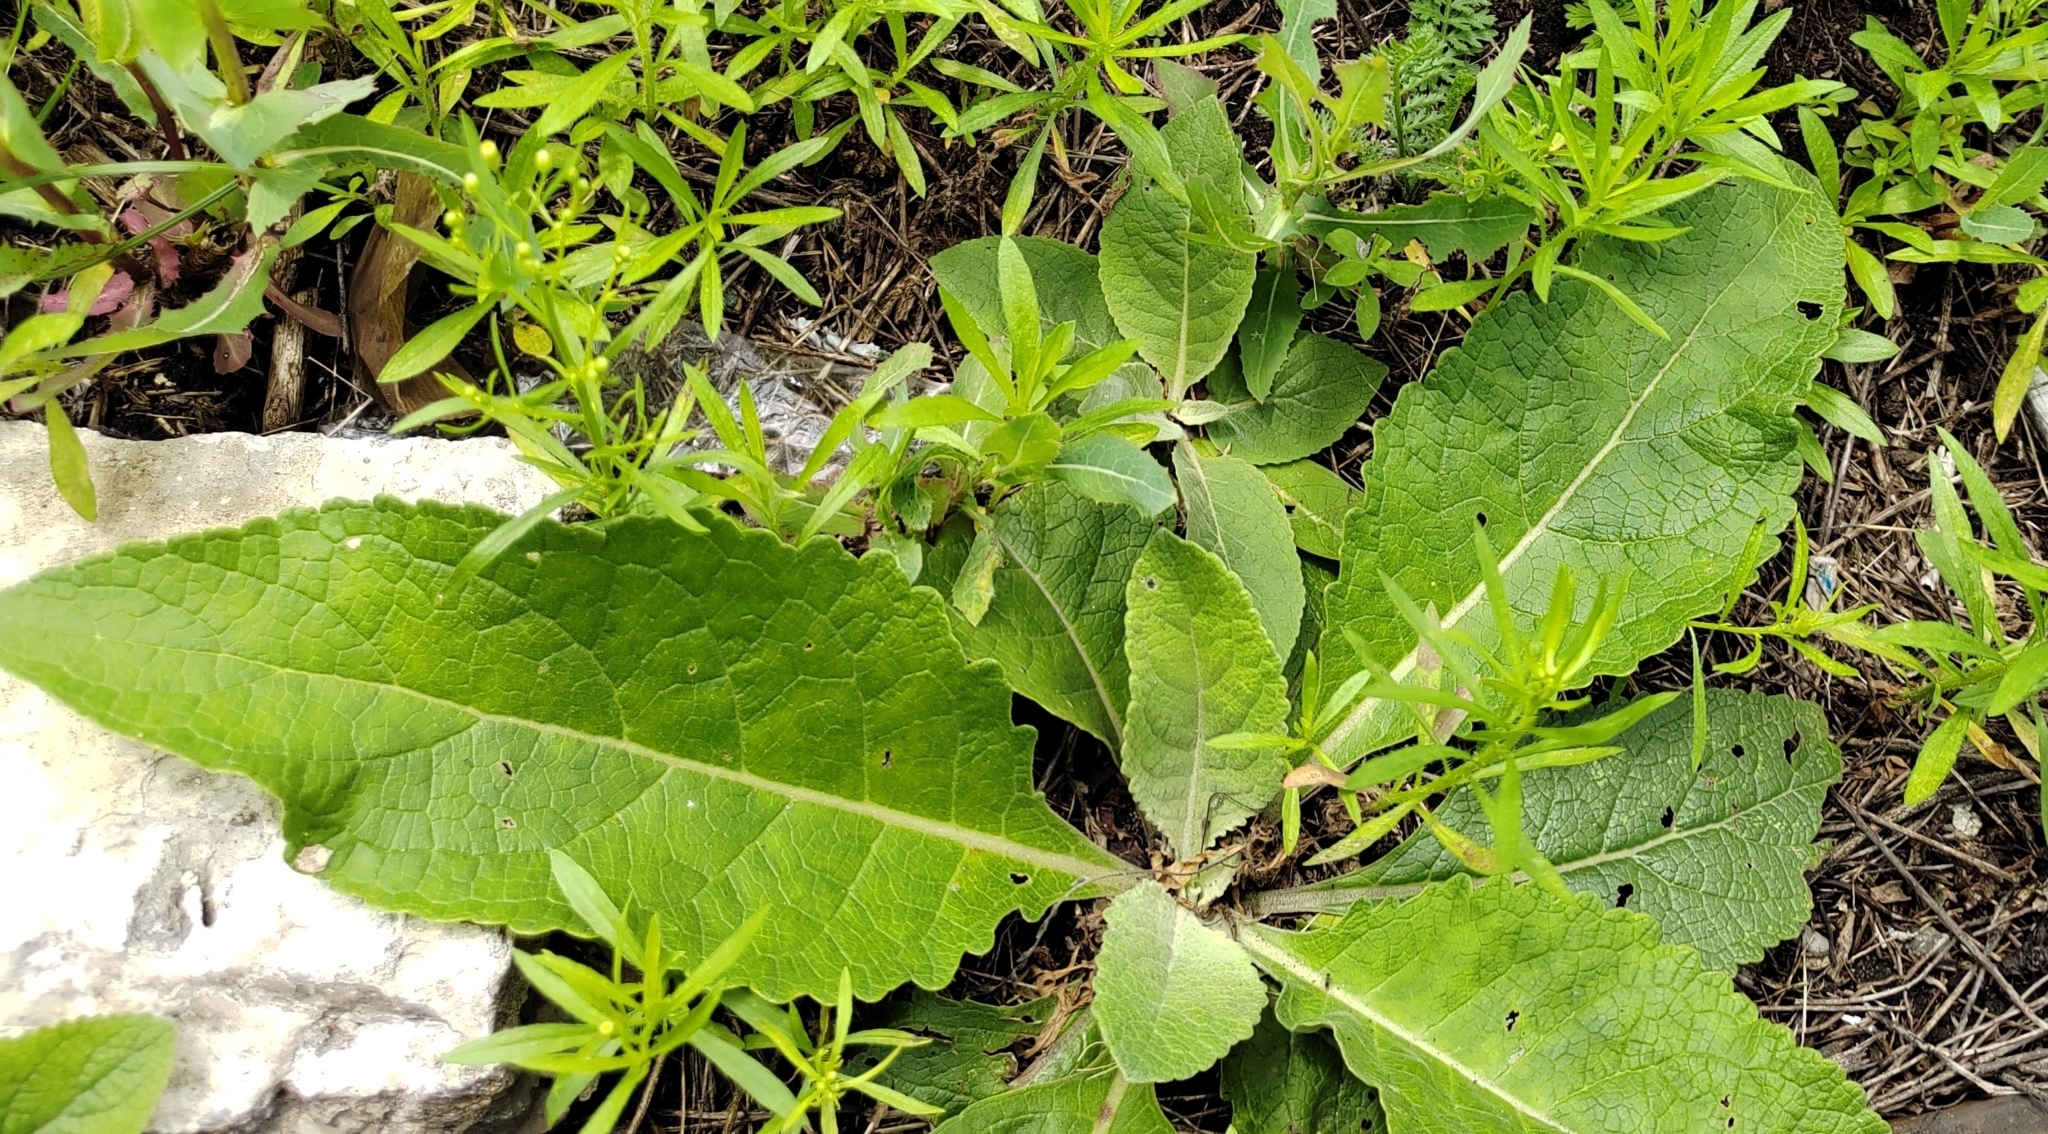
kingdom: Plantae
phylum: Tracheophyta
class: Magnoliopsida
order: Lamiales
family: Scrophulariaceae
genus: Verbascum
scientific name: Verbascum lychnitis
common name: White mullein
